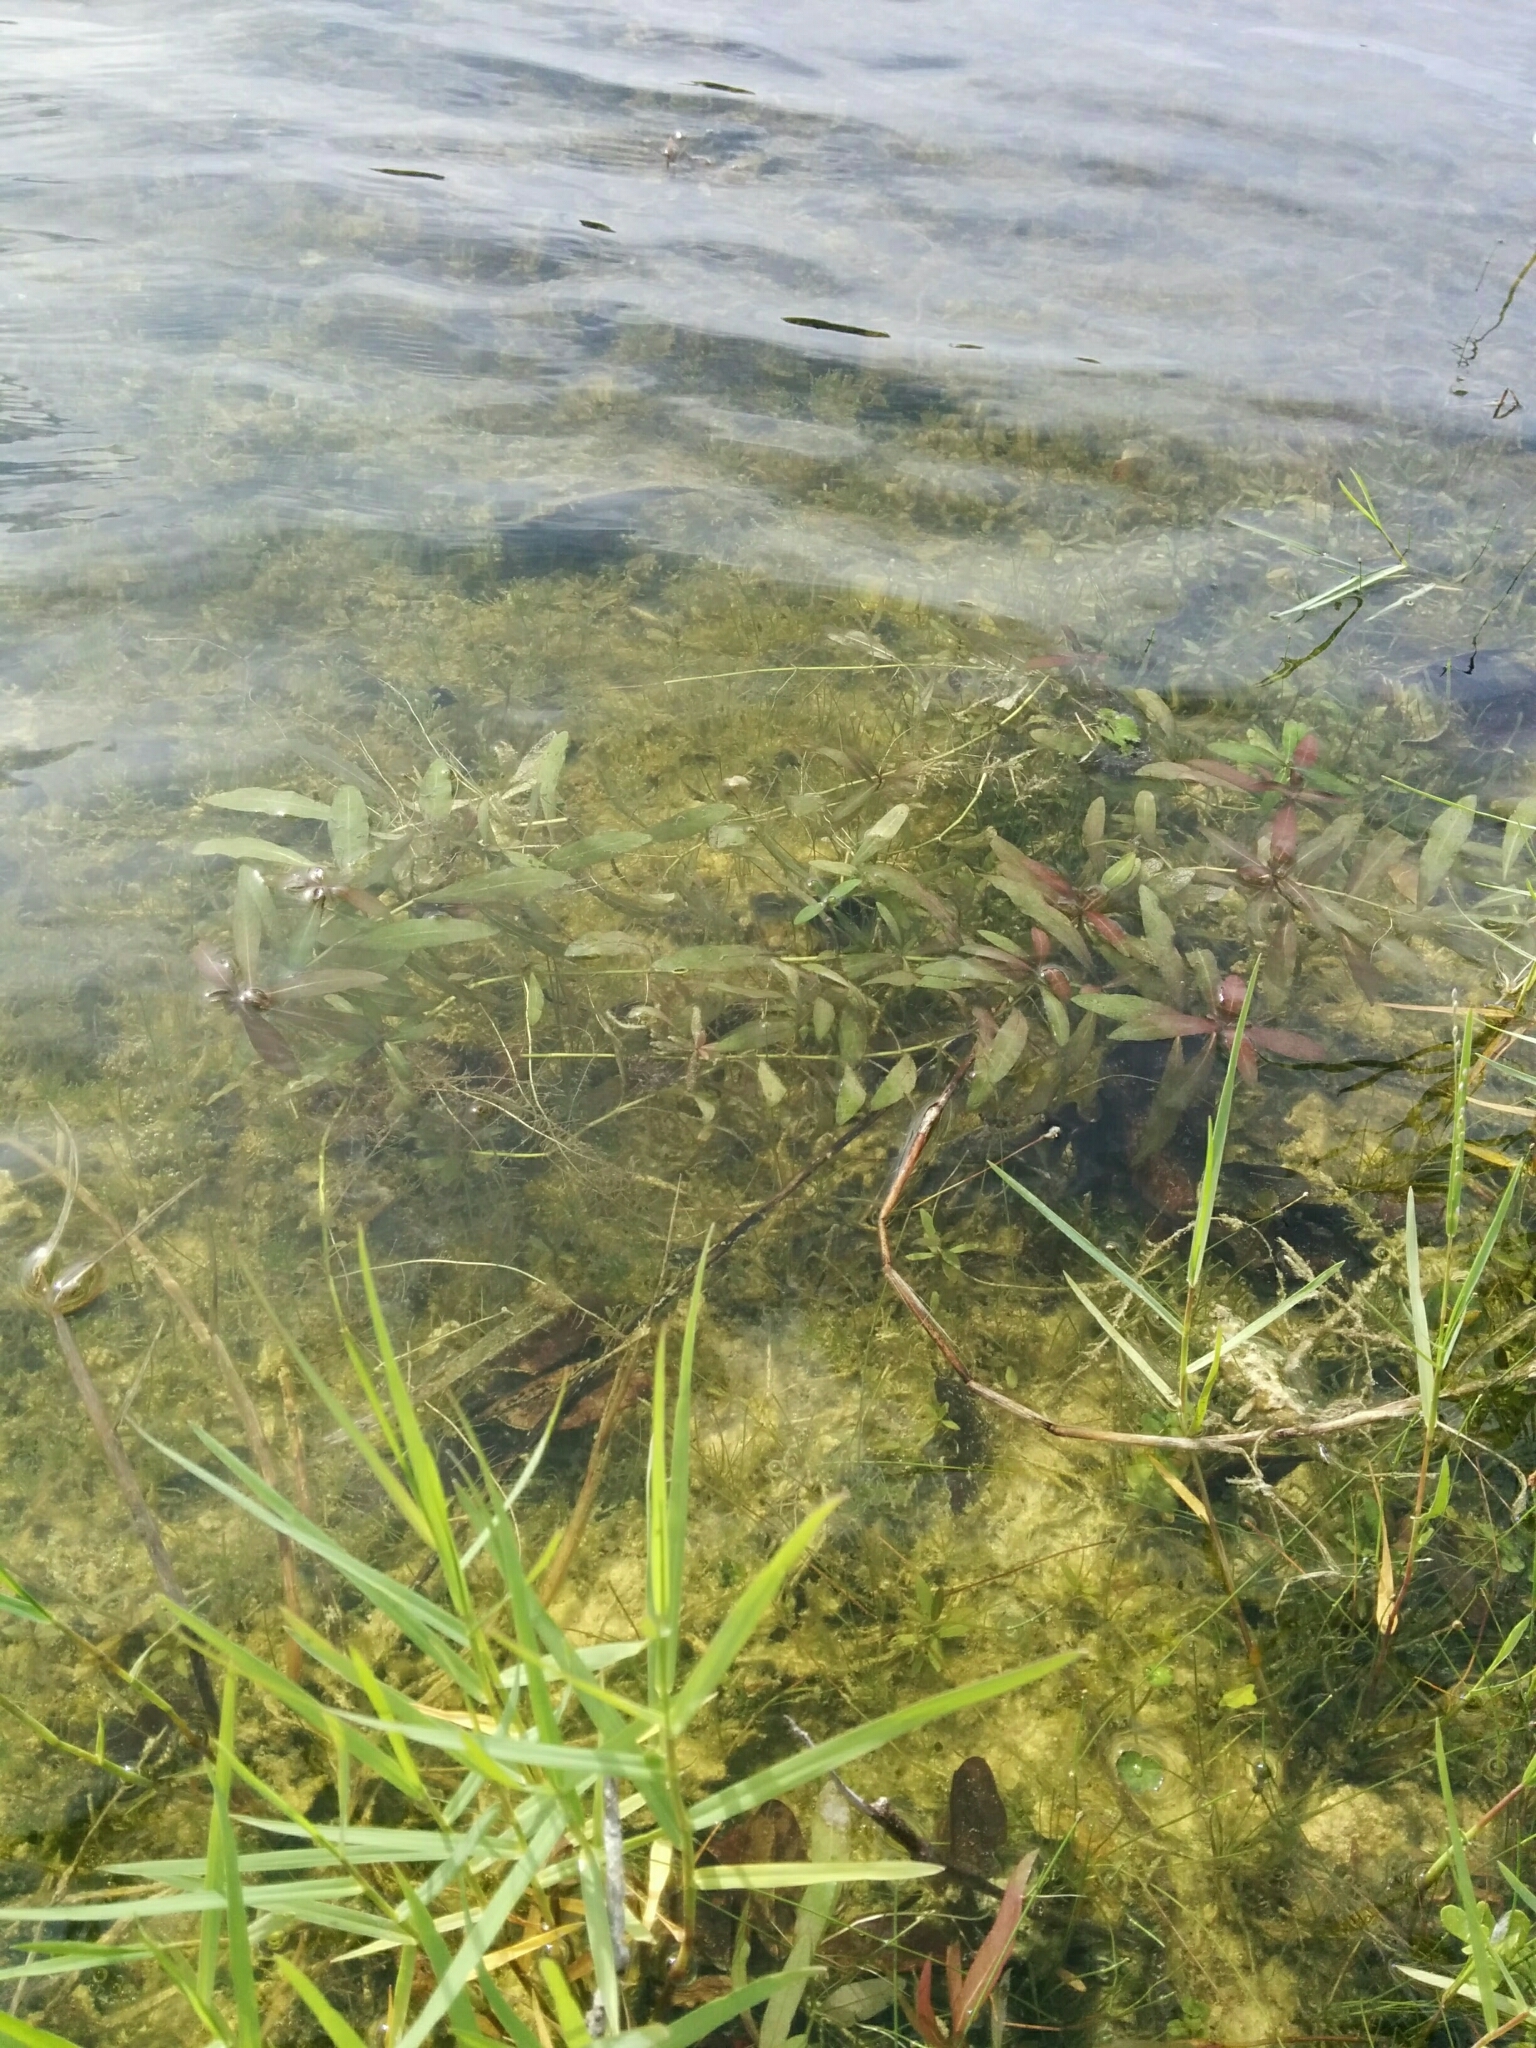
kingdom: Plantae
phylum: Tracheophyta
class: Magnoliopsida
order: Lamiales
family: Acanthaceae
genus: Hygrophila
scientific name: Hygrophila polysperma
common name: Indian swampweed
